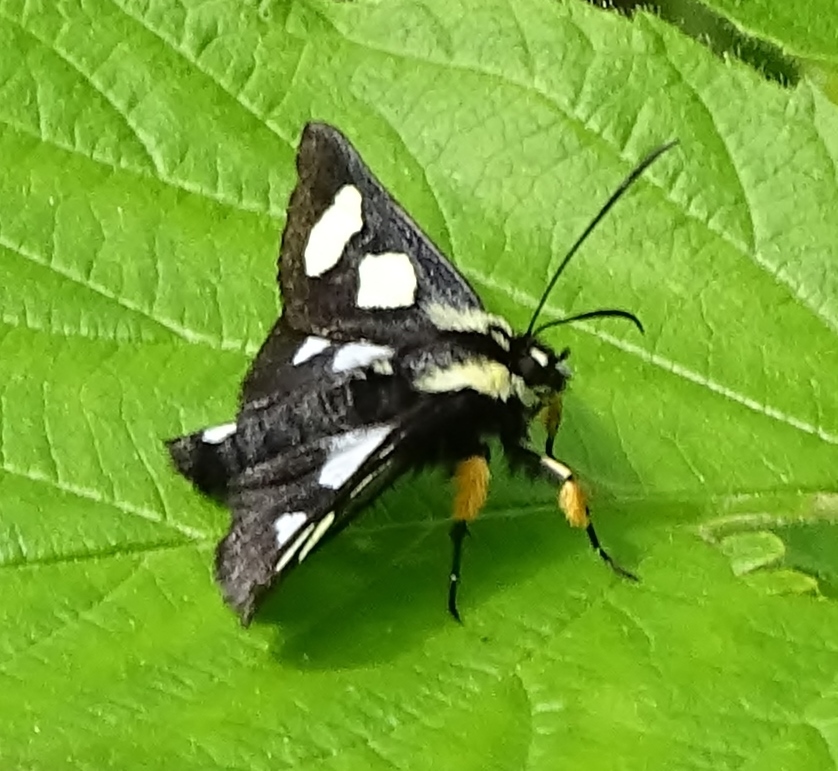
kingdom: Animalia
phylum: Arthropoda
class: Insecta
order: Lepidoptera
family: Noctuidae
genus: Alypia
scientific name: Alypia octomaculata
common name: Eight-spotted forester
